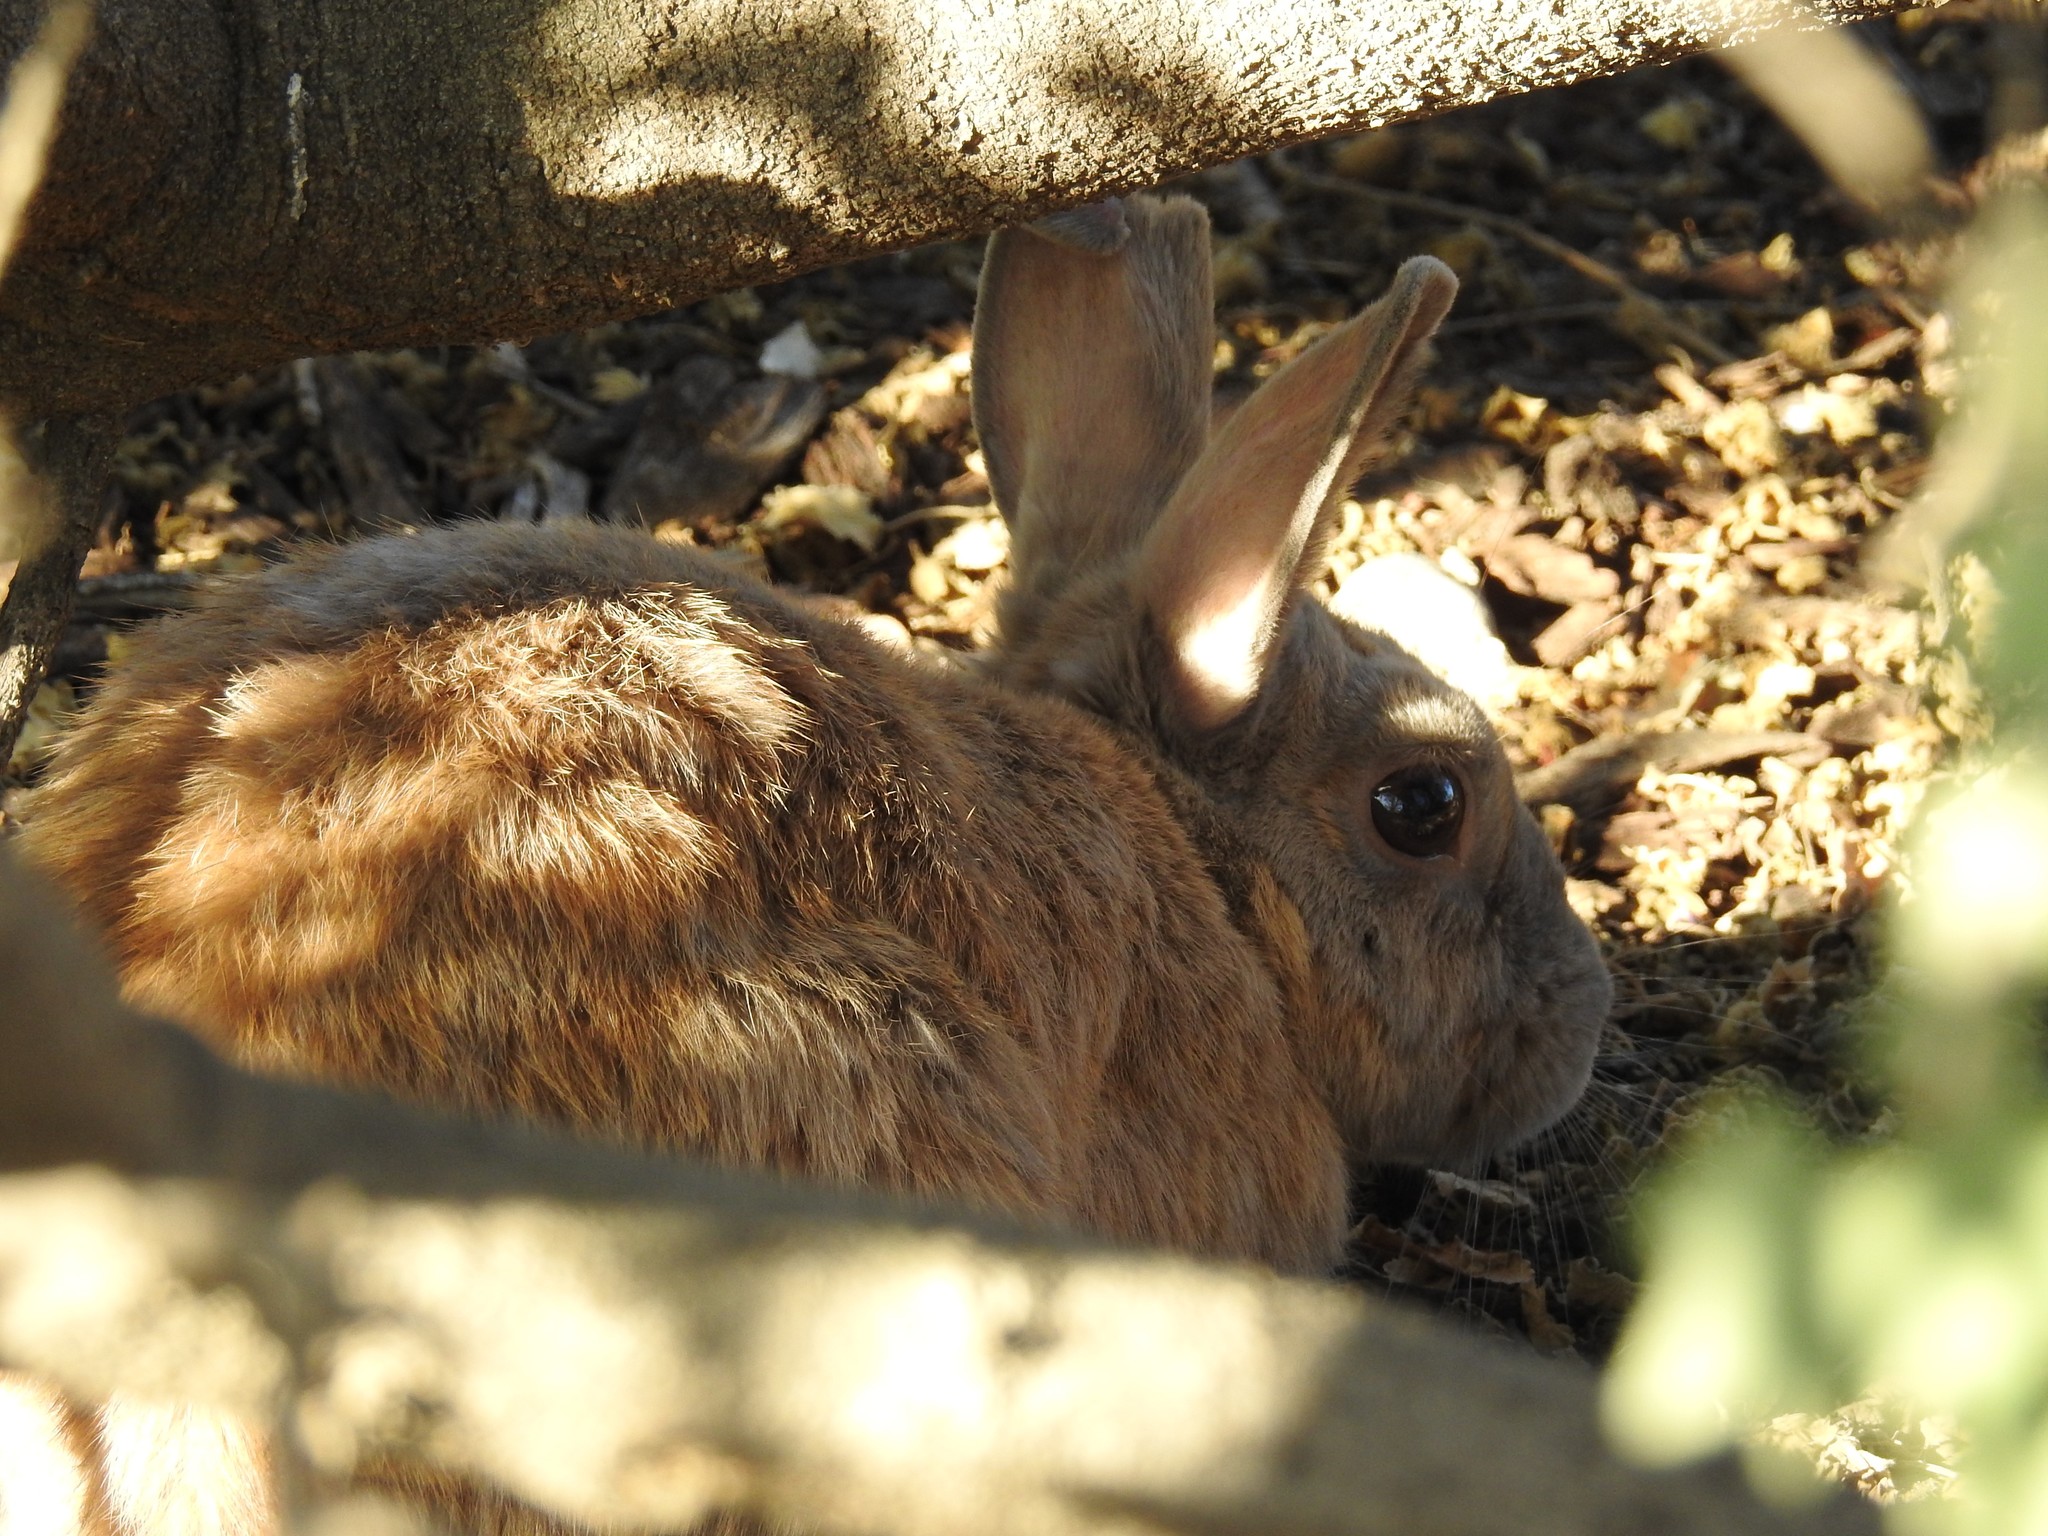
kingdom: Animalia
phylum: Chordata
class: Mammalia
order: Lagomorpha
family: Leporidae
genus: Oryctolagus
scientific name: Oryctolagus cuniculus
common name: European rabbit
